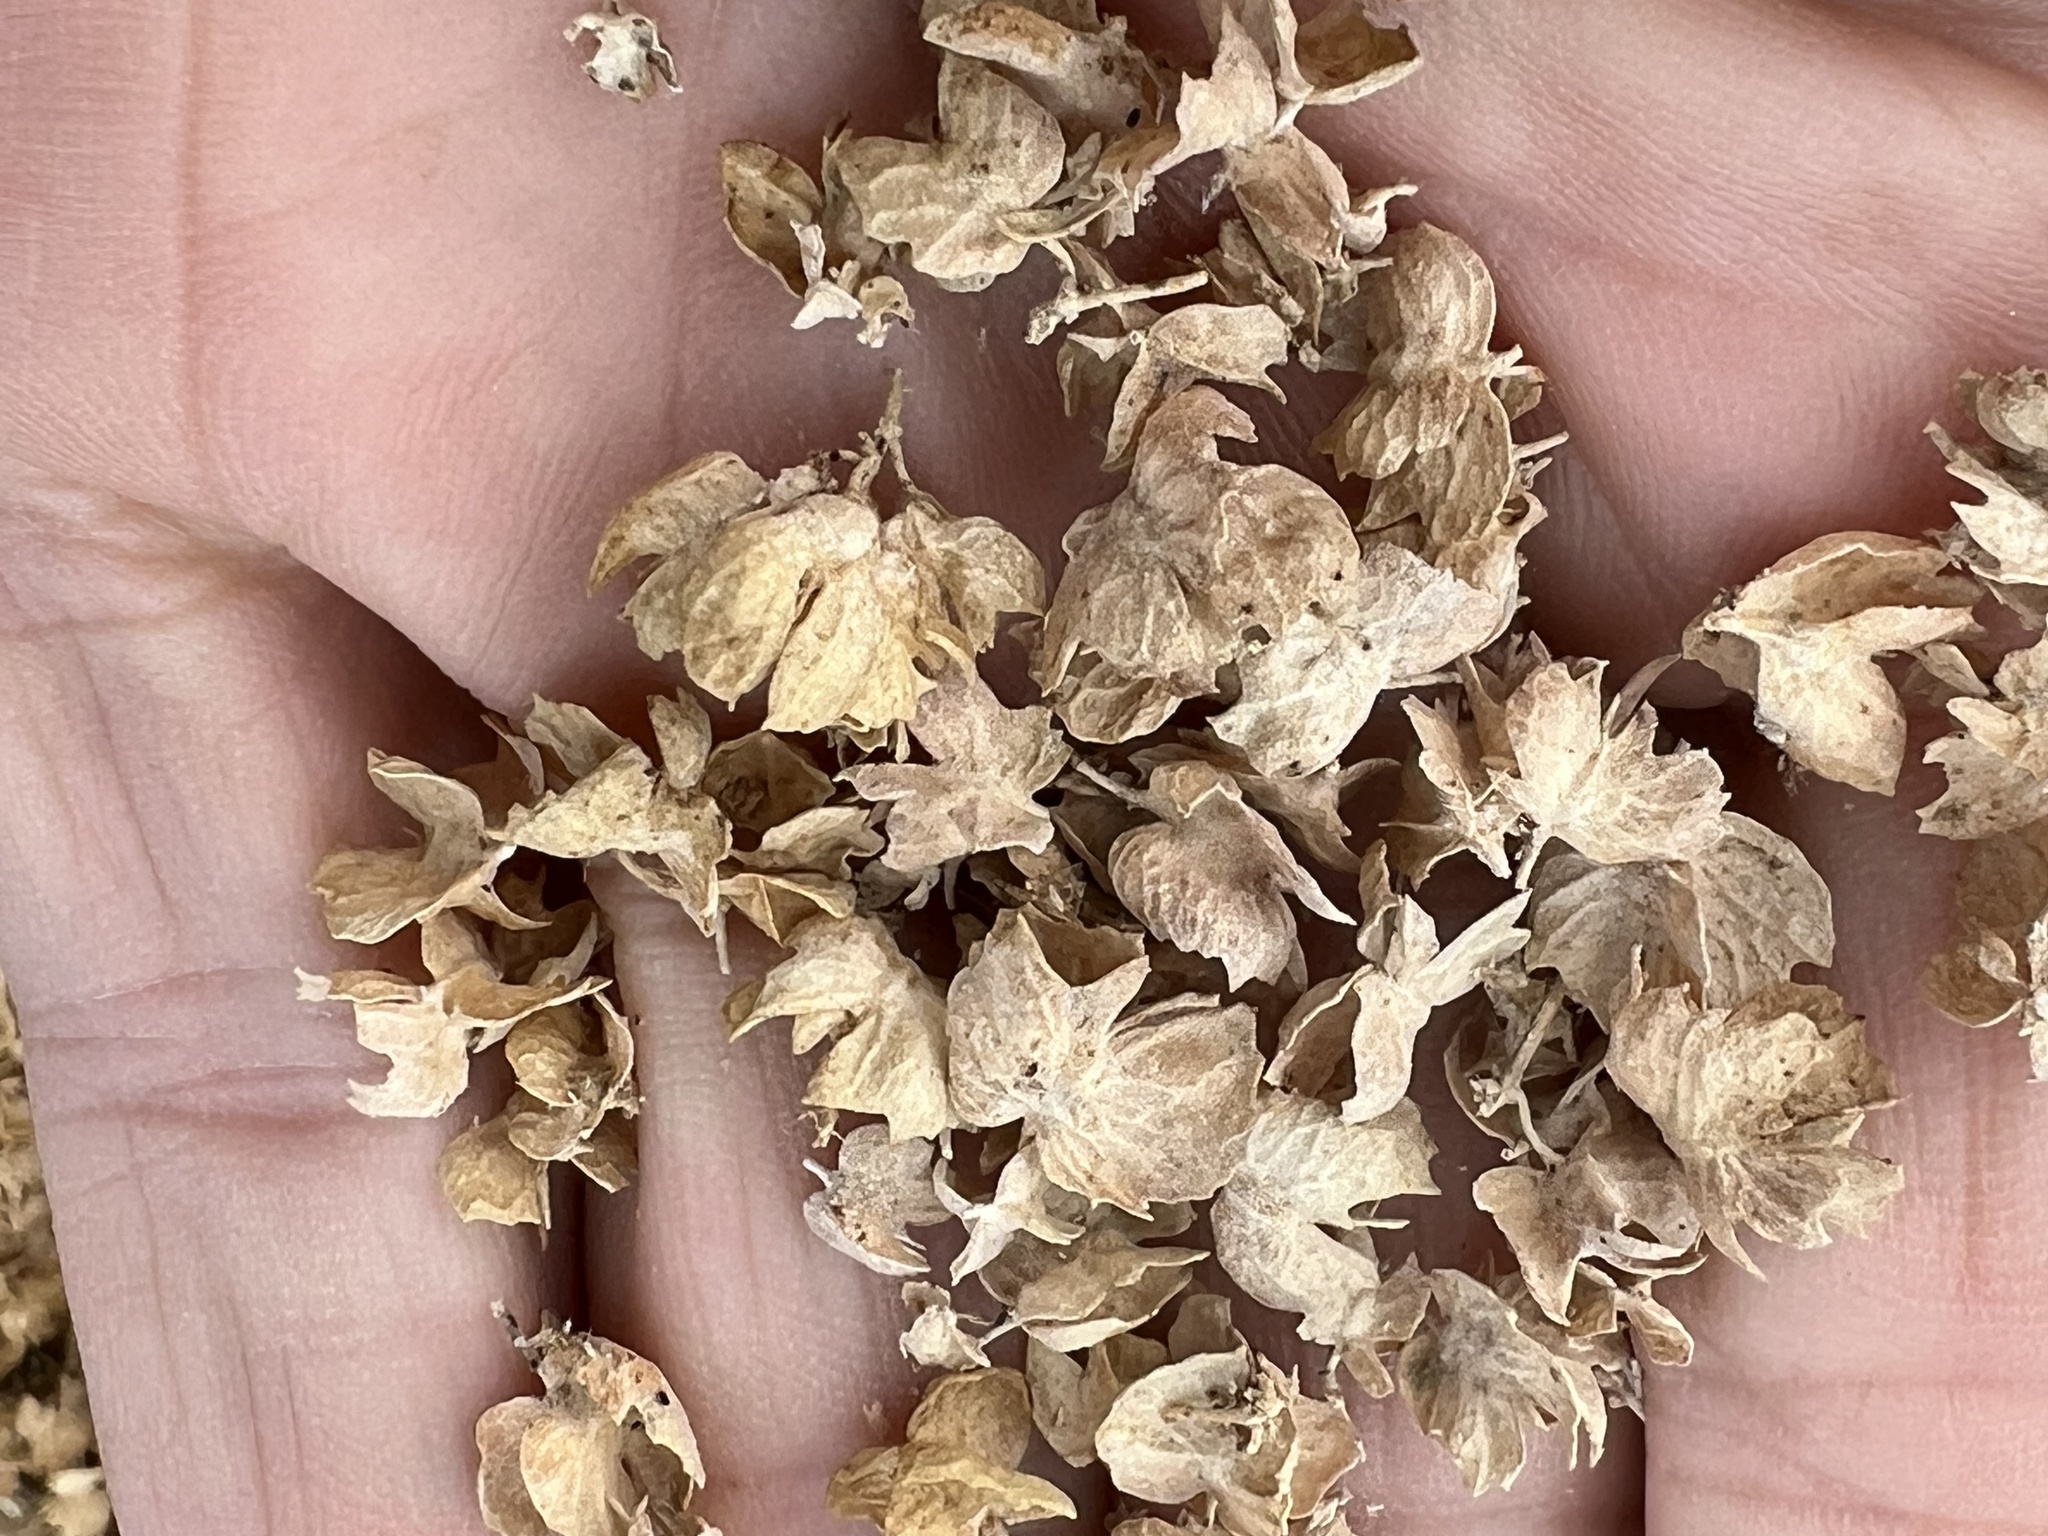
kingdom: Plantae
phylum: Tracheophyta
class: Magnoliopsida
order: Caryophyllales
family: Amaranthaceae
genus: Atriplex
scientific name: Atriplex canescens
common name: Four-wing saltbush
